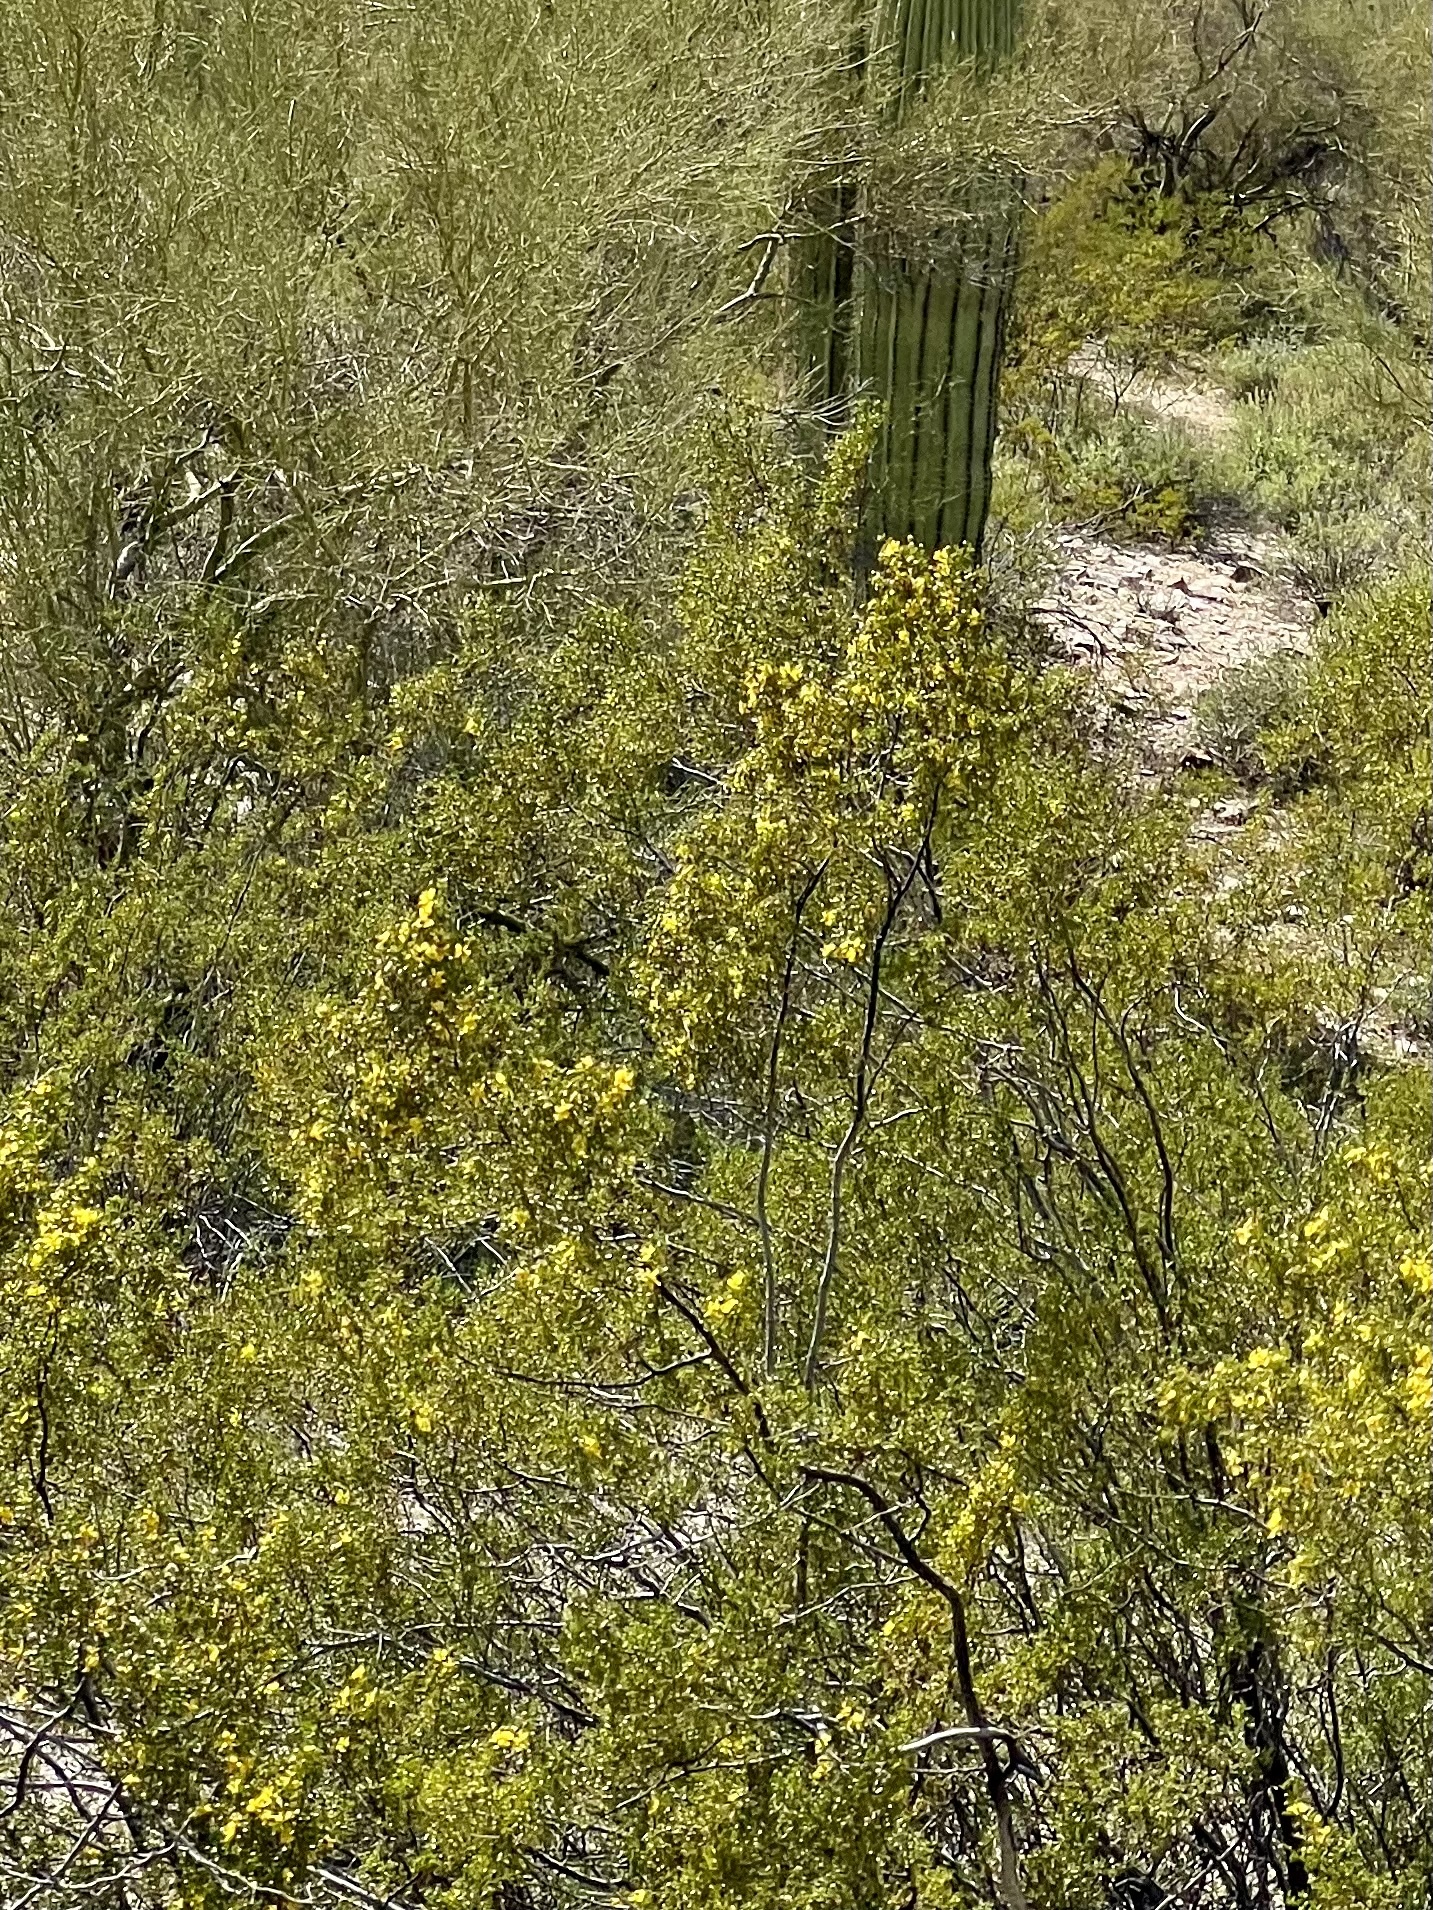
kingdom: Plantae
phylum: Tracheophyta
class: Magnoliopsida
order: Zygophyllales
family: Zygophyllaceae
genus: Larrea
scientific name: Larrea tridentata
